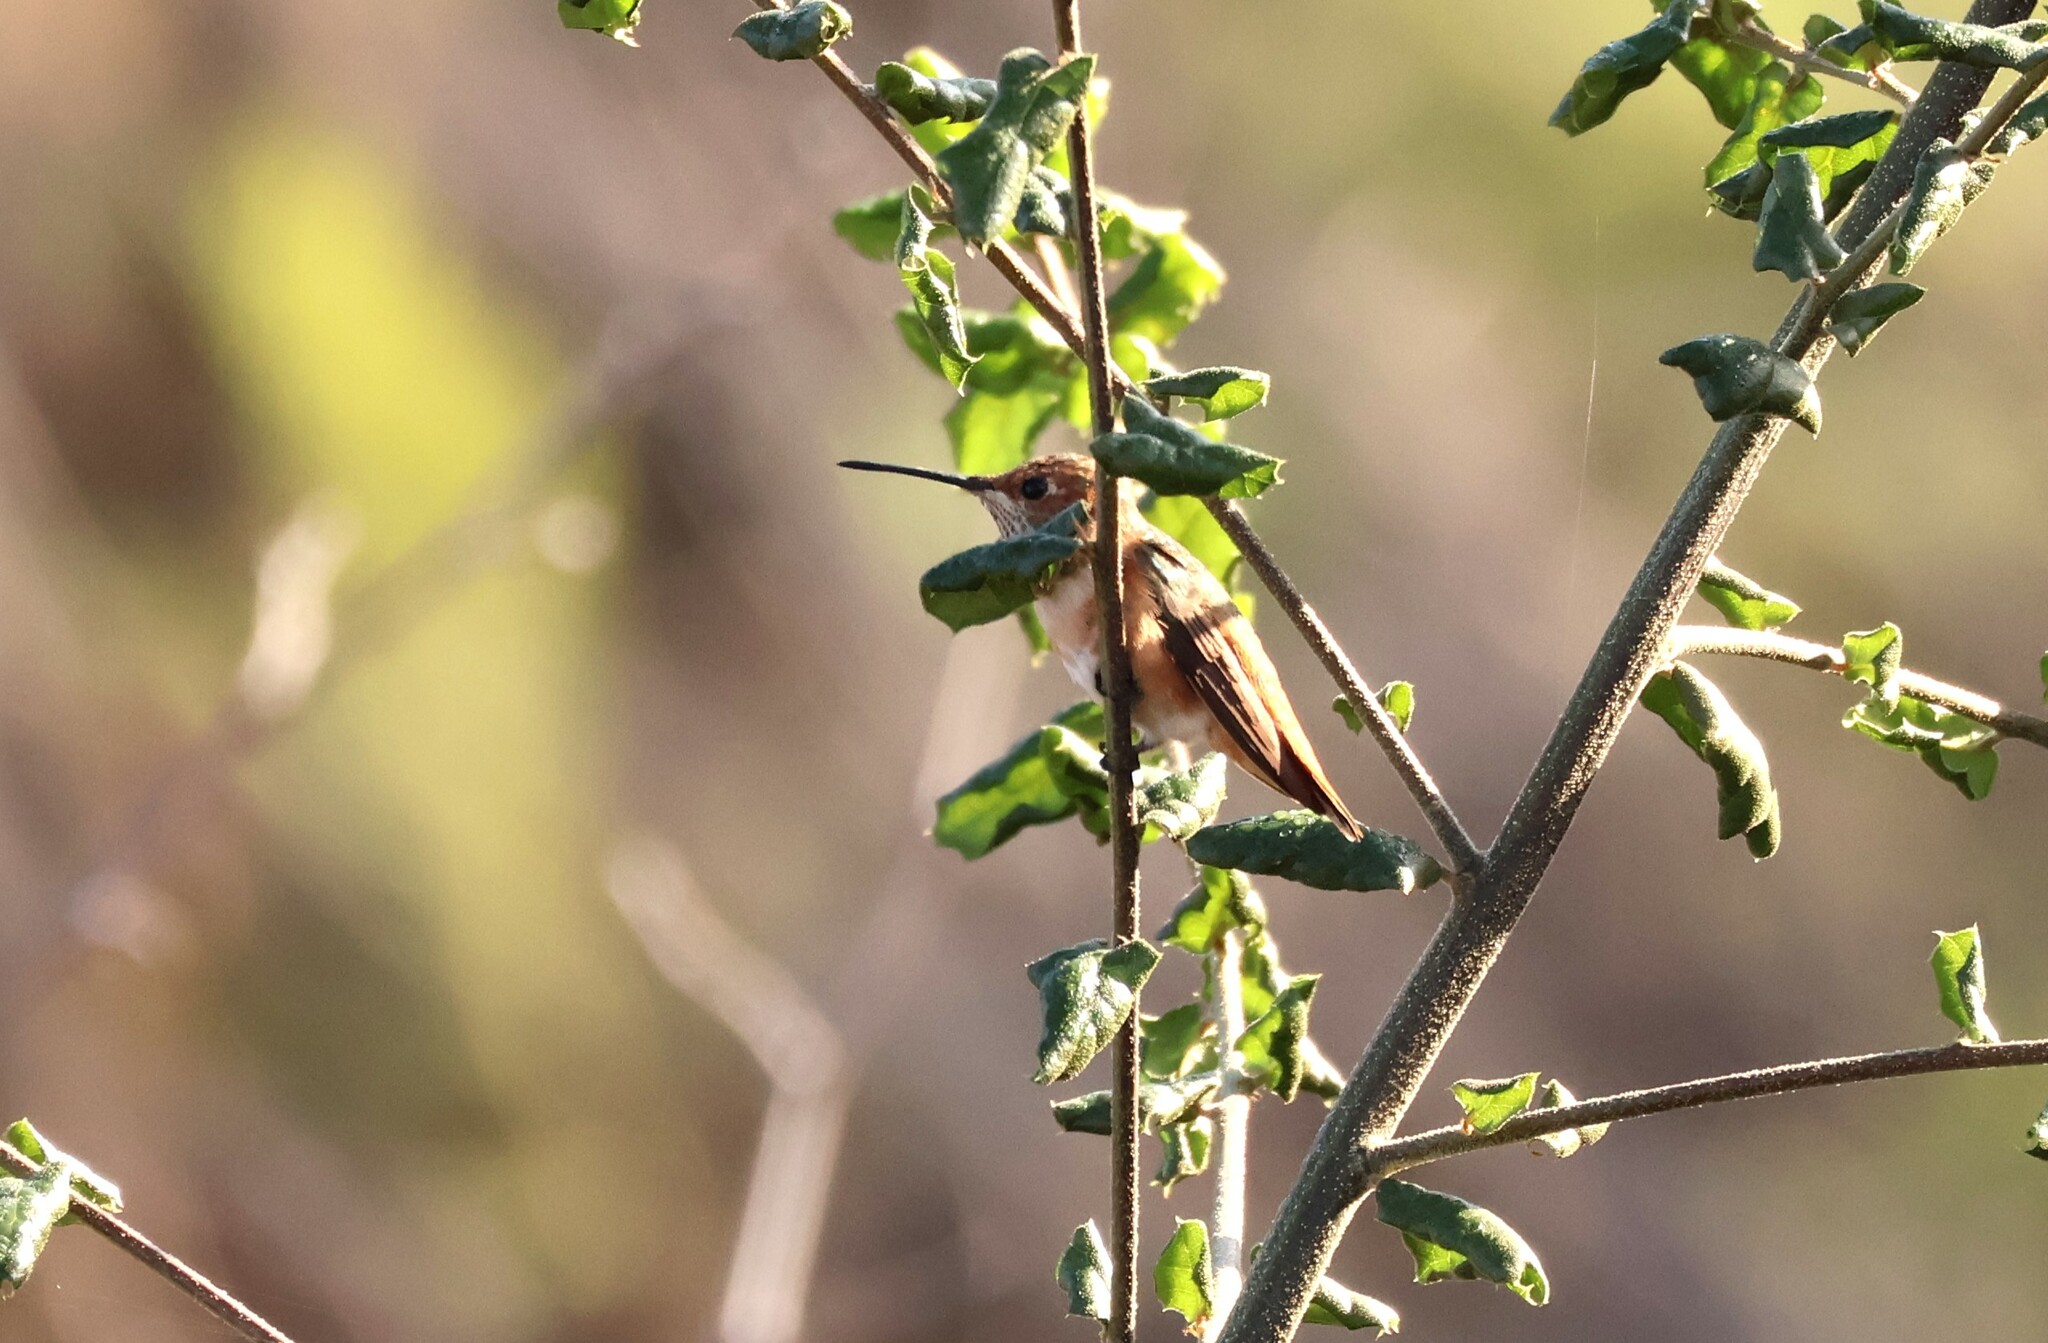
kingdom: Animalia
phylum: Chordata
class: Aves
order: Apodiformes
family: Trochilidae
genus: Selasphorus
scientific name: Selasphorus sasin
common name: Allen's hummingbird
